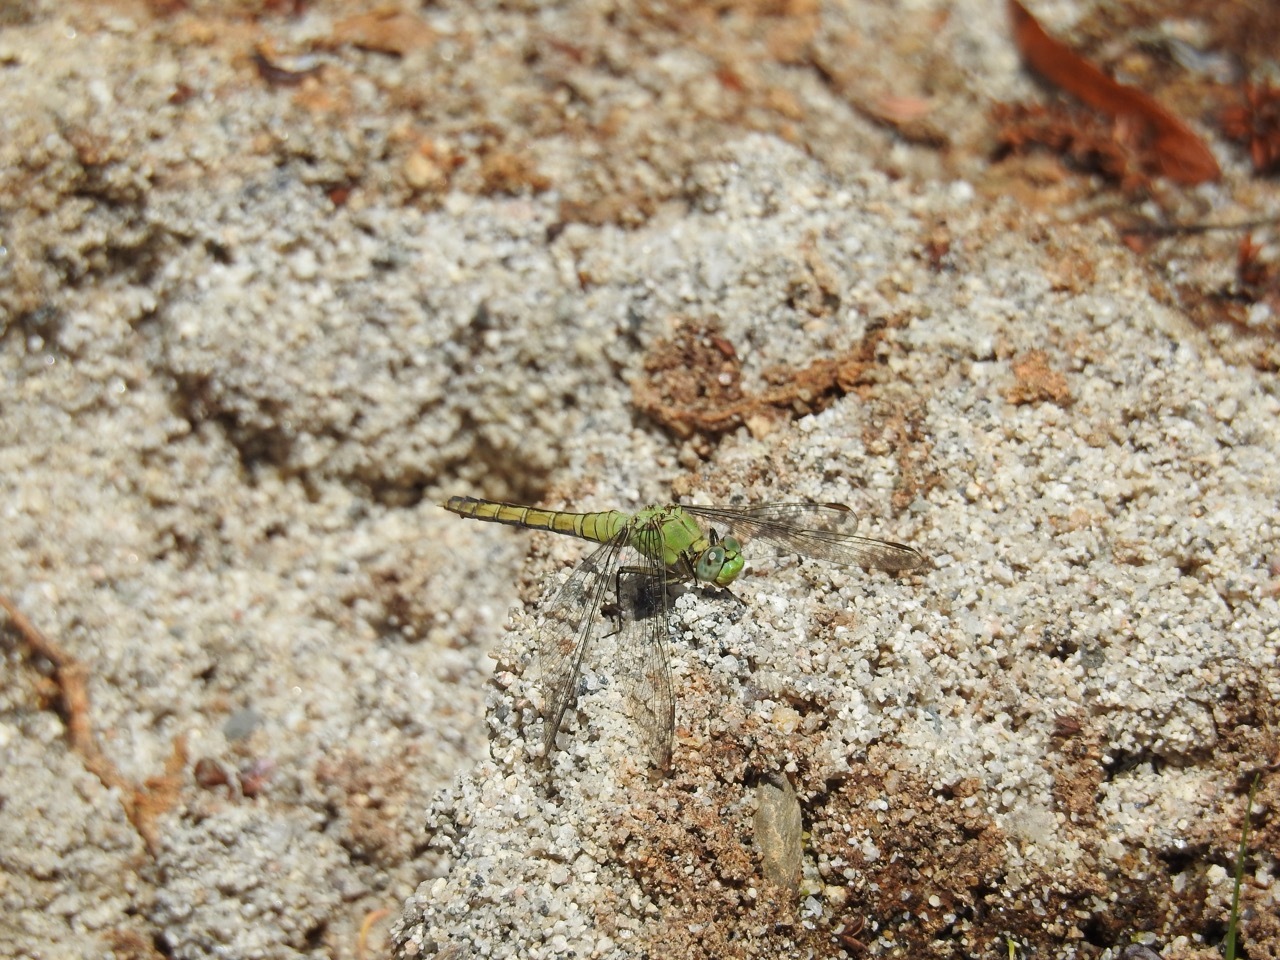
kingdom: Animalia
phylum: Arthropoda
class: Insecta
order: Odonata
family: Libellulidae
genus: Erythemis
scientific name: Erythemis collocata
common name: Western pondhawk
